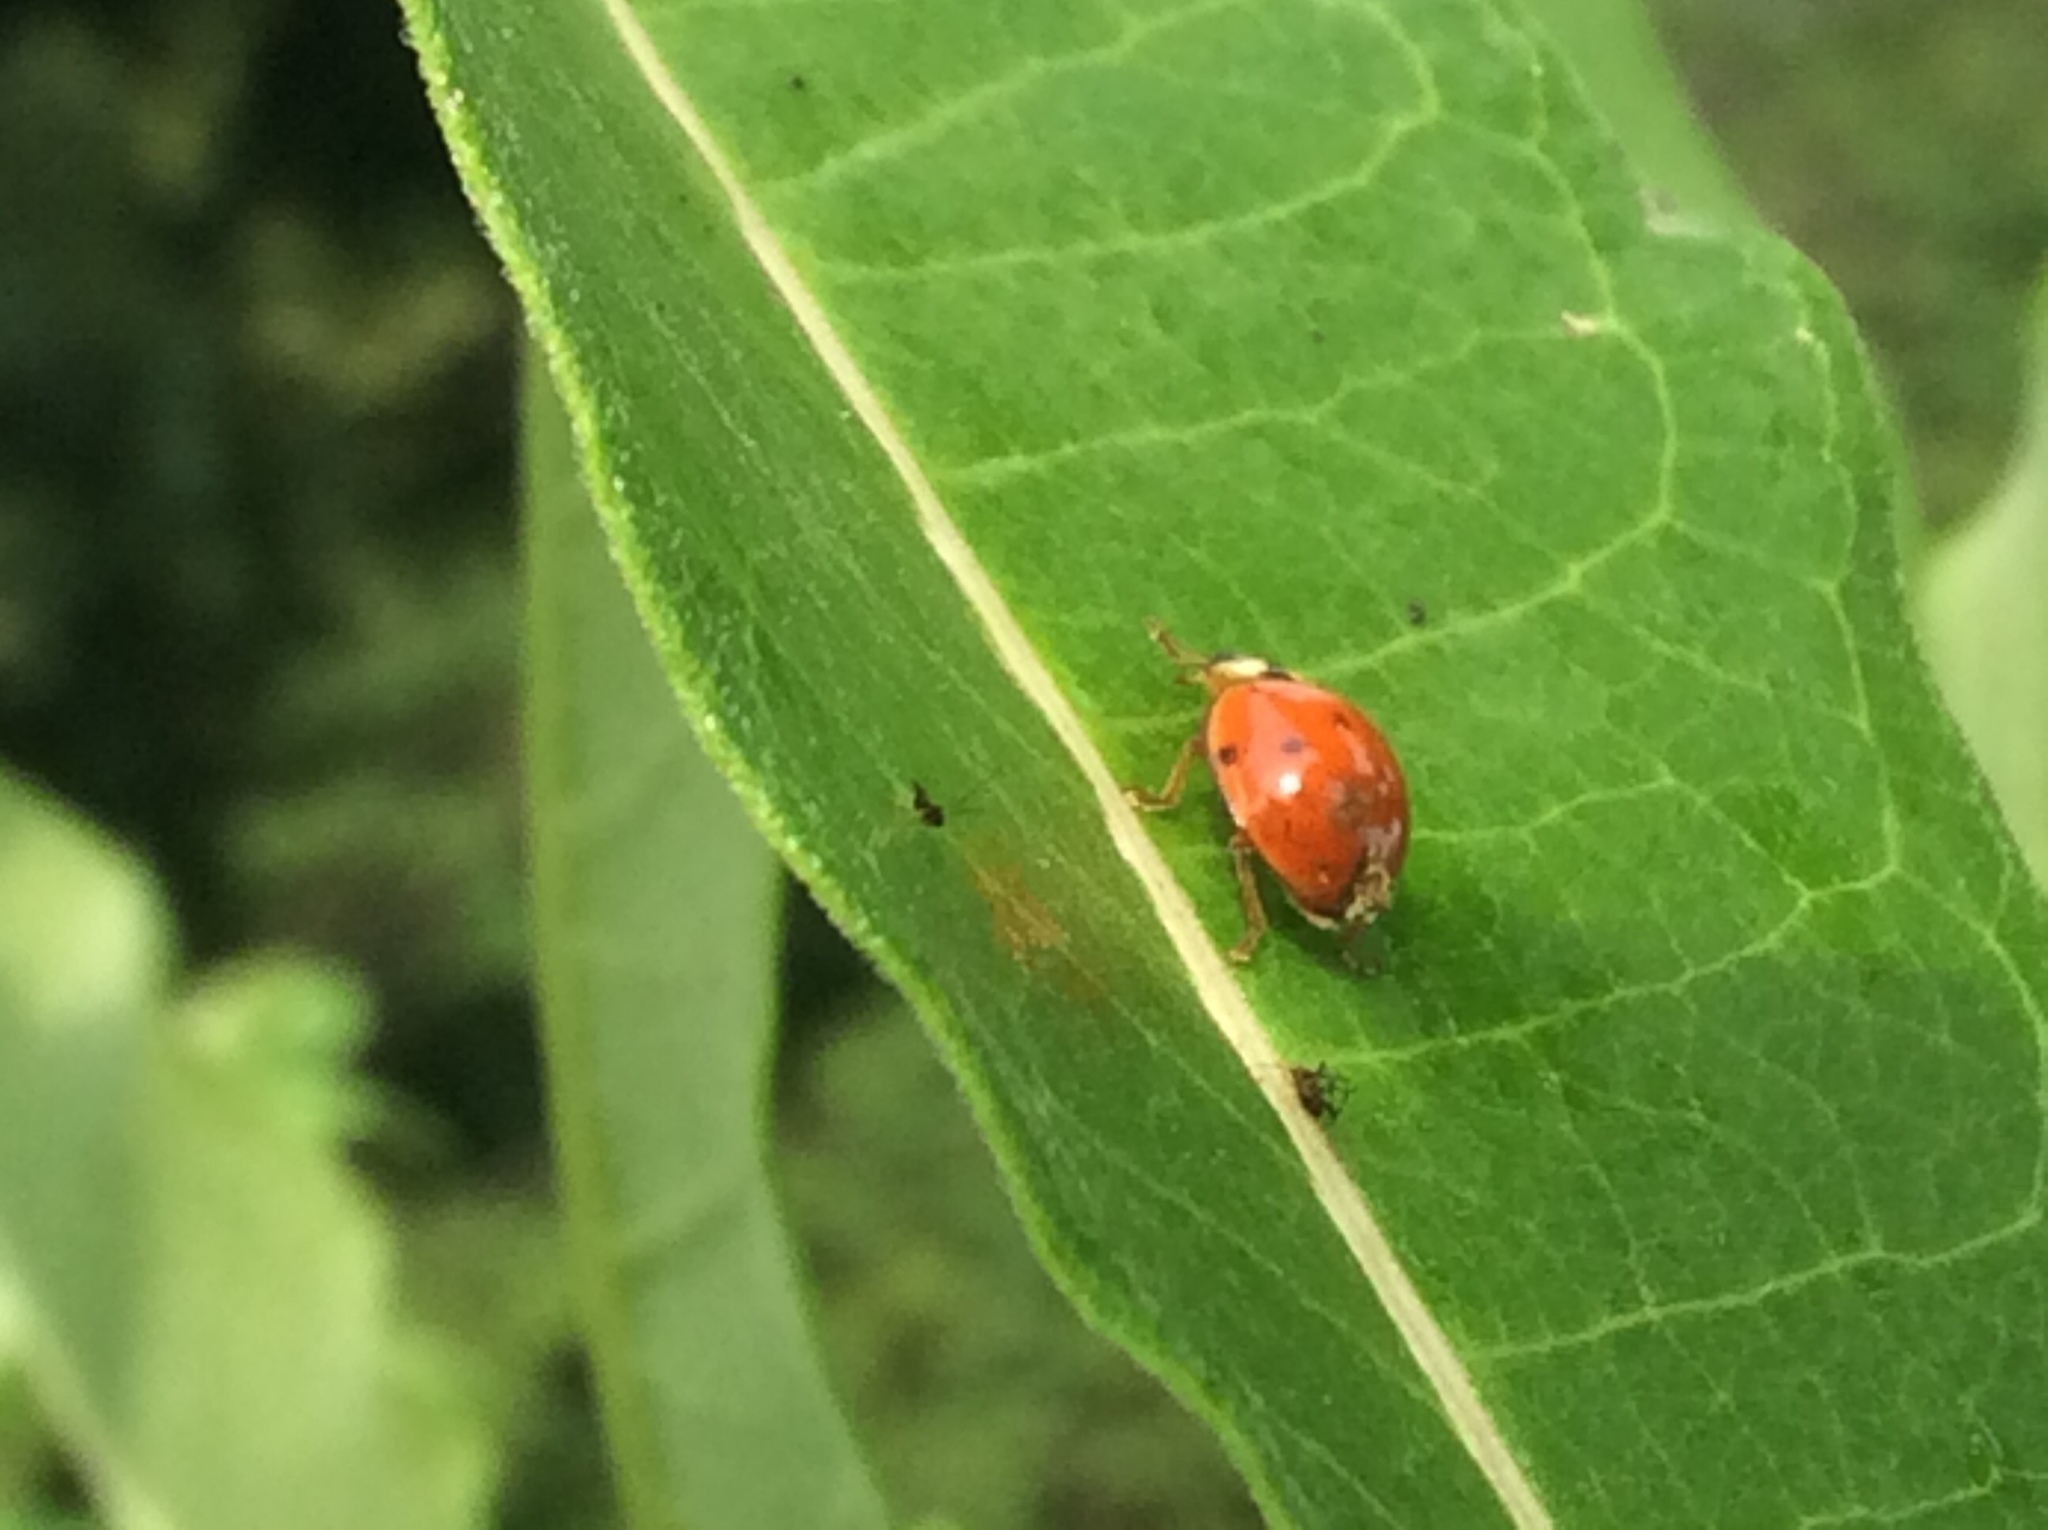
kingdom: Animalia
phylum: Arthropoda
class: Insecta
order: Coleoptera
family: Coccinellidae
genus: Harmonia
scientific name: Harmonia axyridis
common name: Harlequin ladybird
